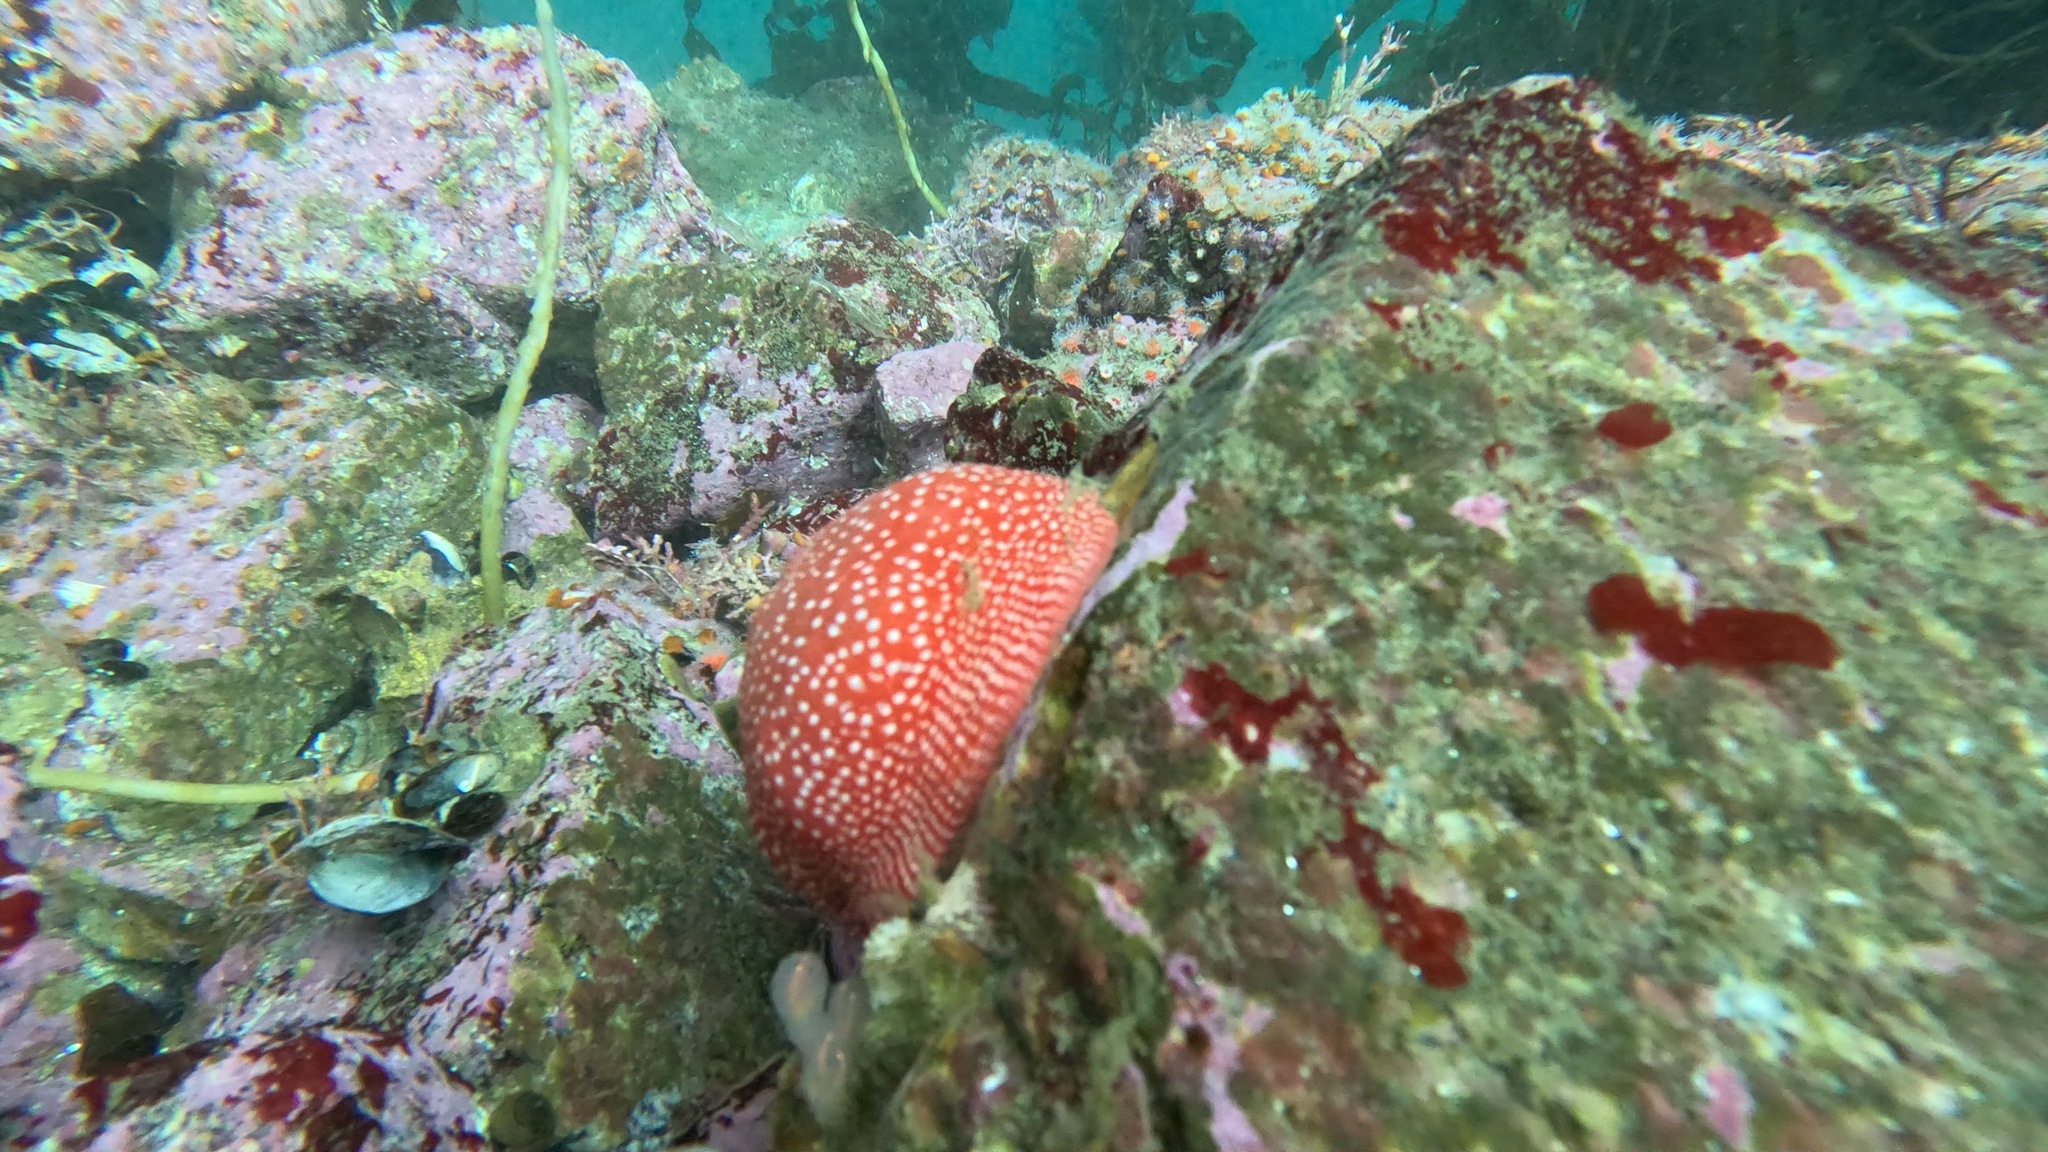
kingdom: Animalia
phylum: Cnidaria
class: Anthozoa
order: Actiniaria
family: Actiniidae
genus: Cribrinopsis
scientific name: Cribrinopsis albopunctata
